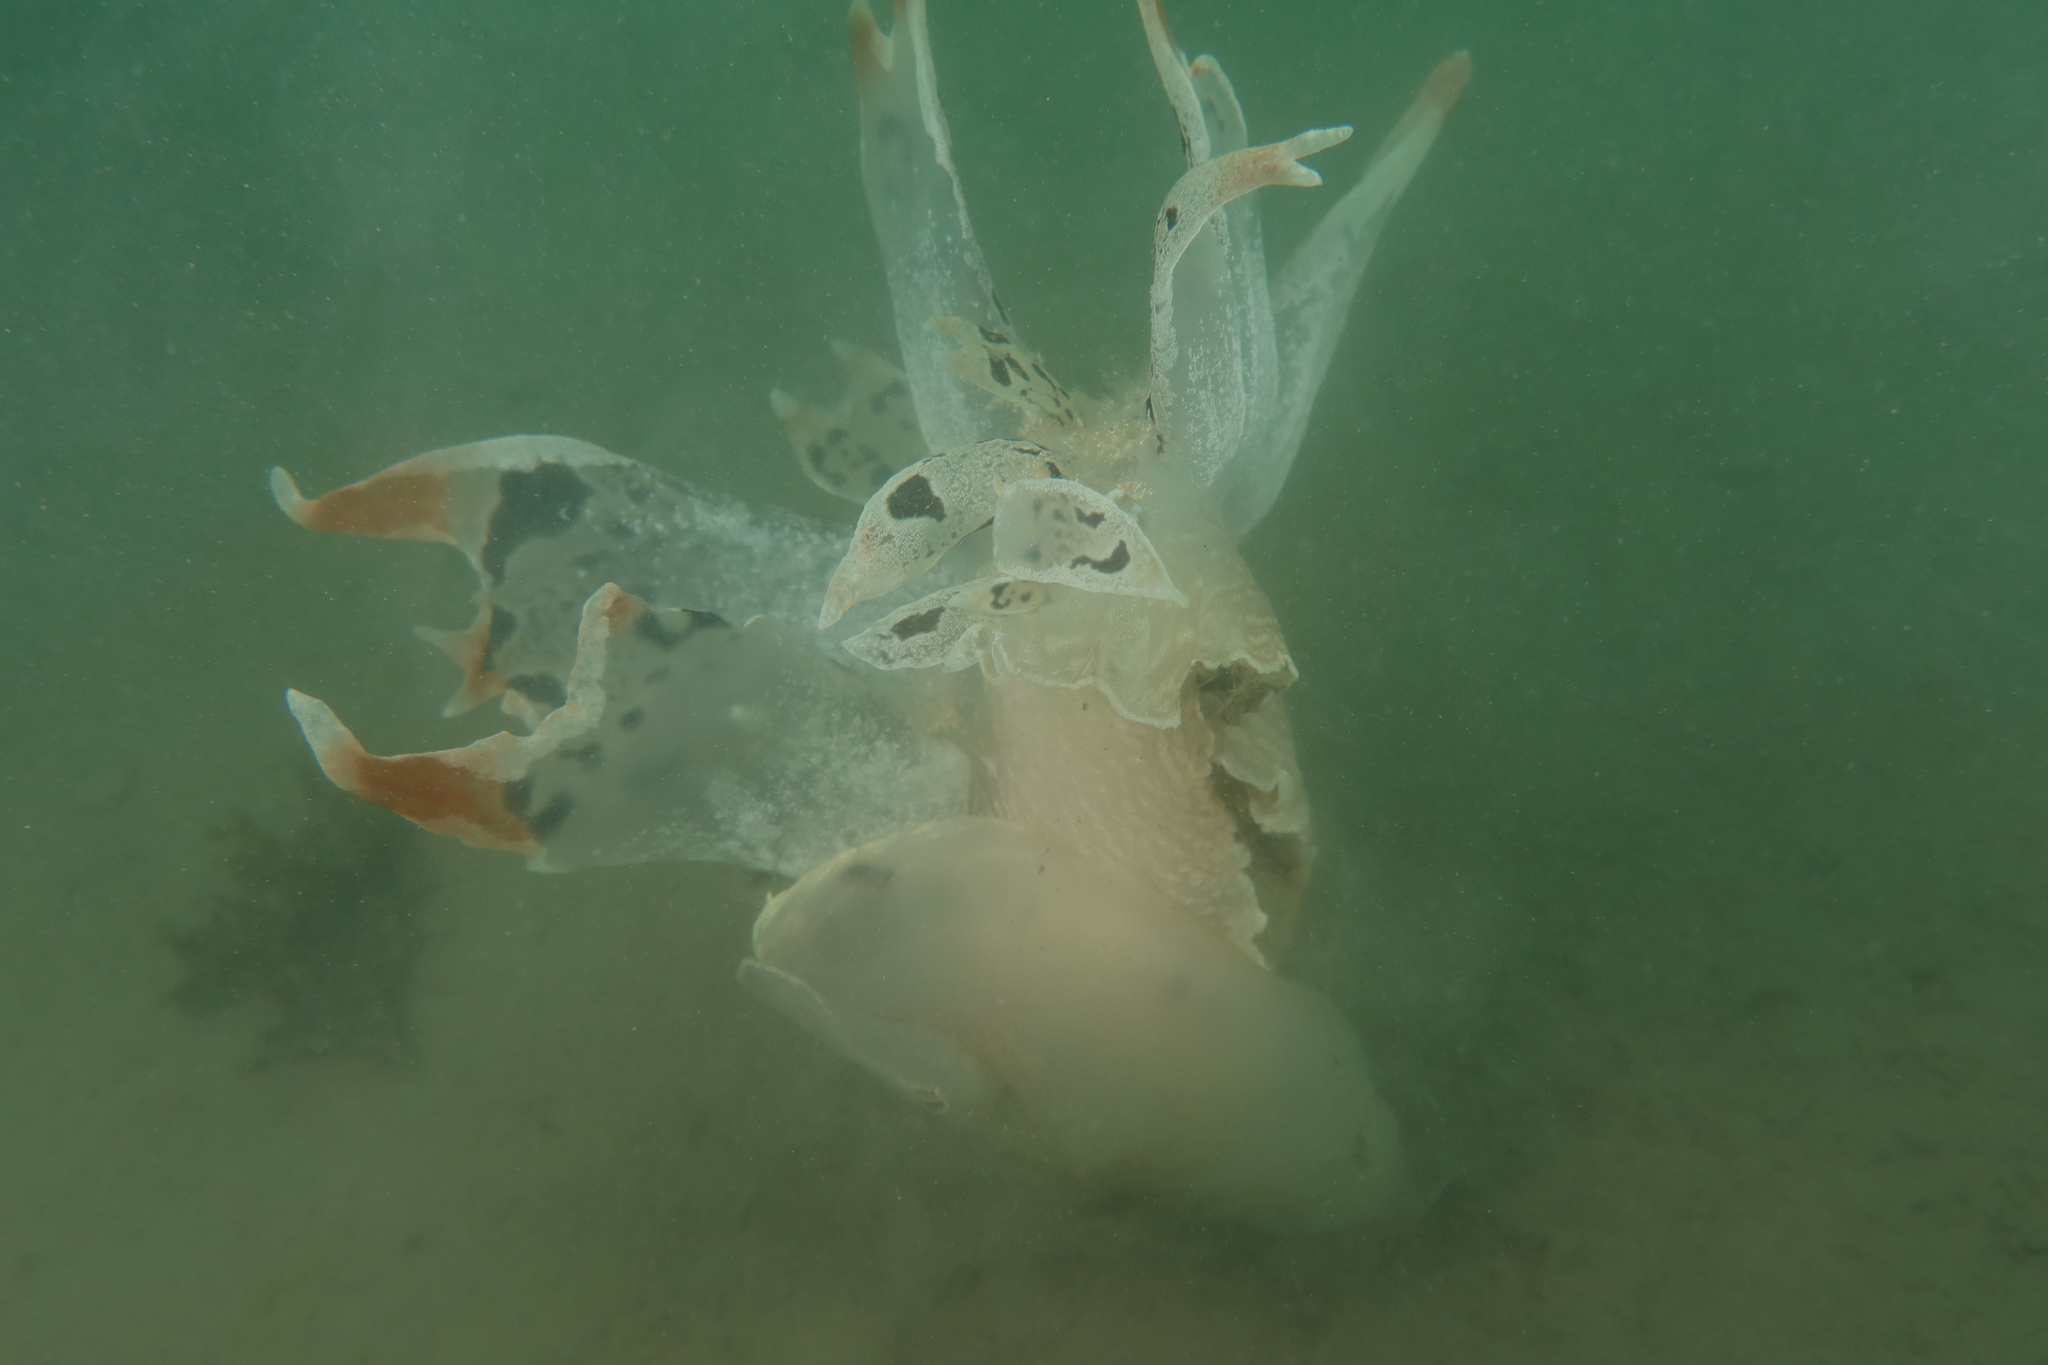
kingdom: Animalia
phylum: Mollusca
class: Gastropoda
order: Nudibranchia
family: Tethydidae
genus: Tethys
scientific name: Tethys fimbria
